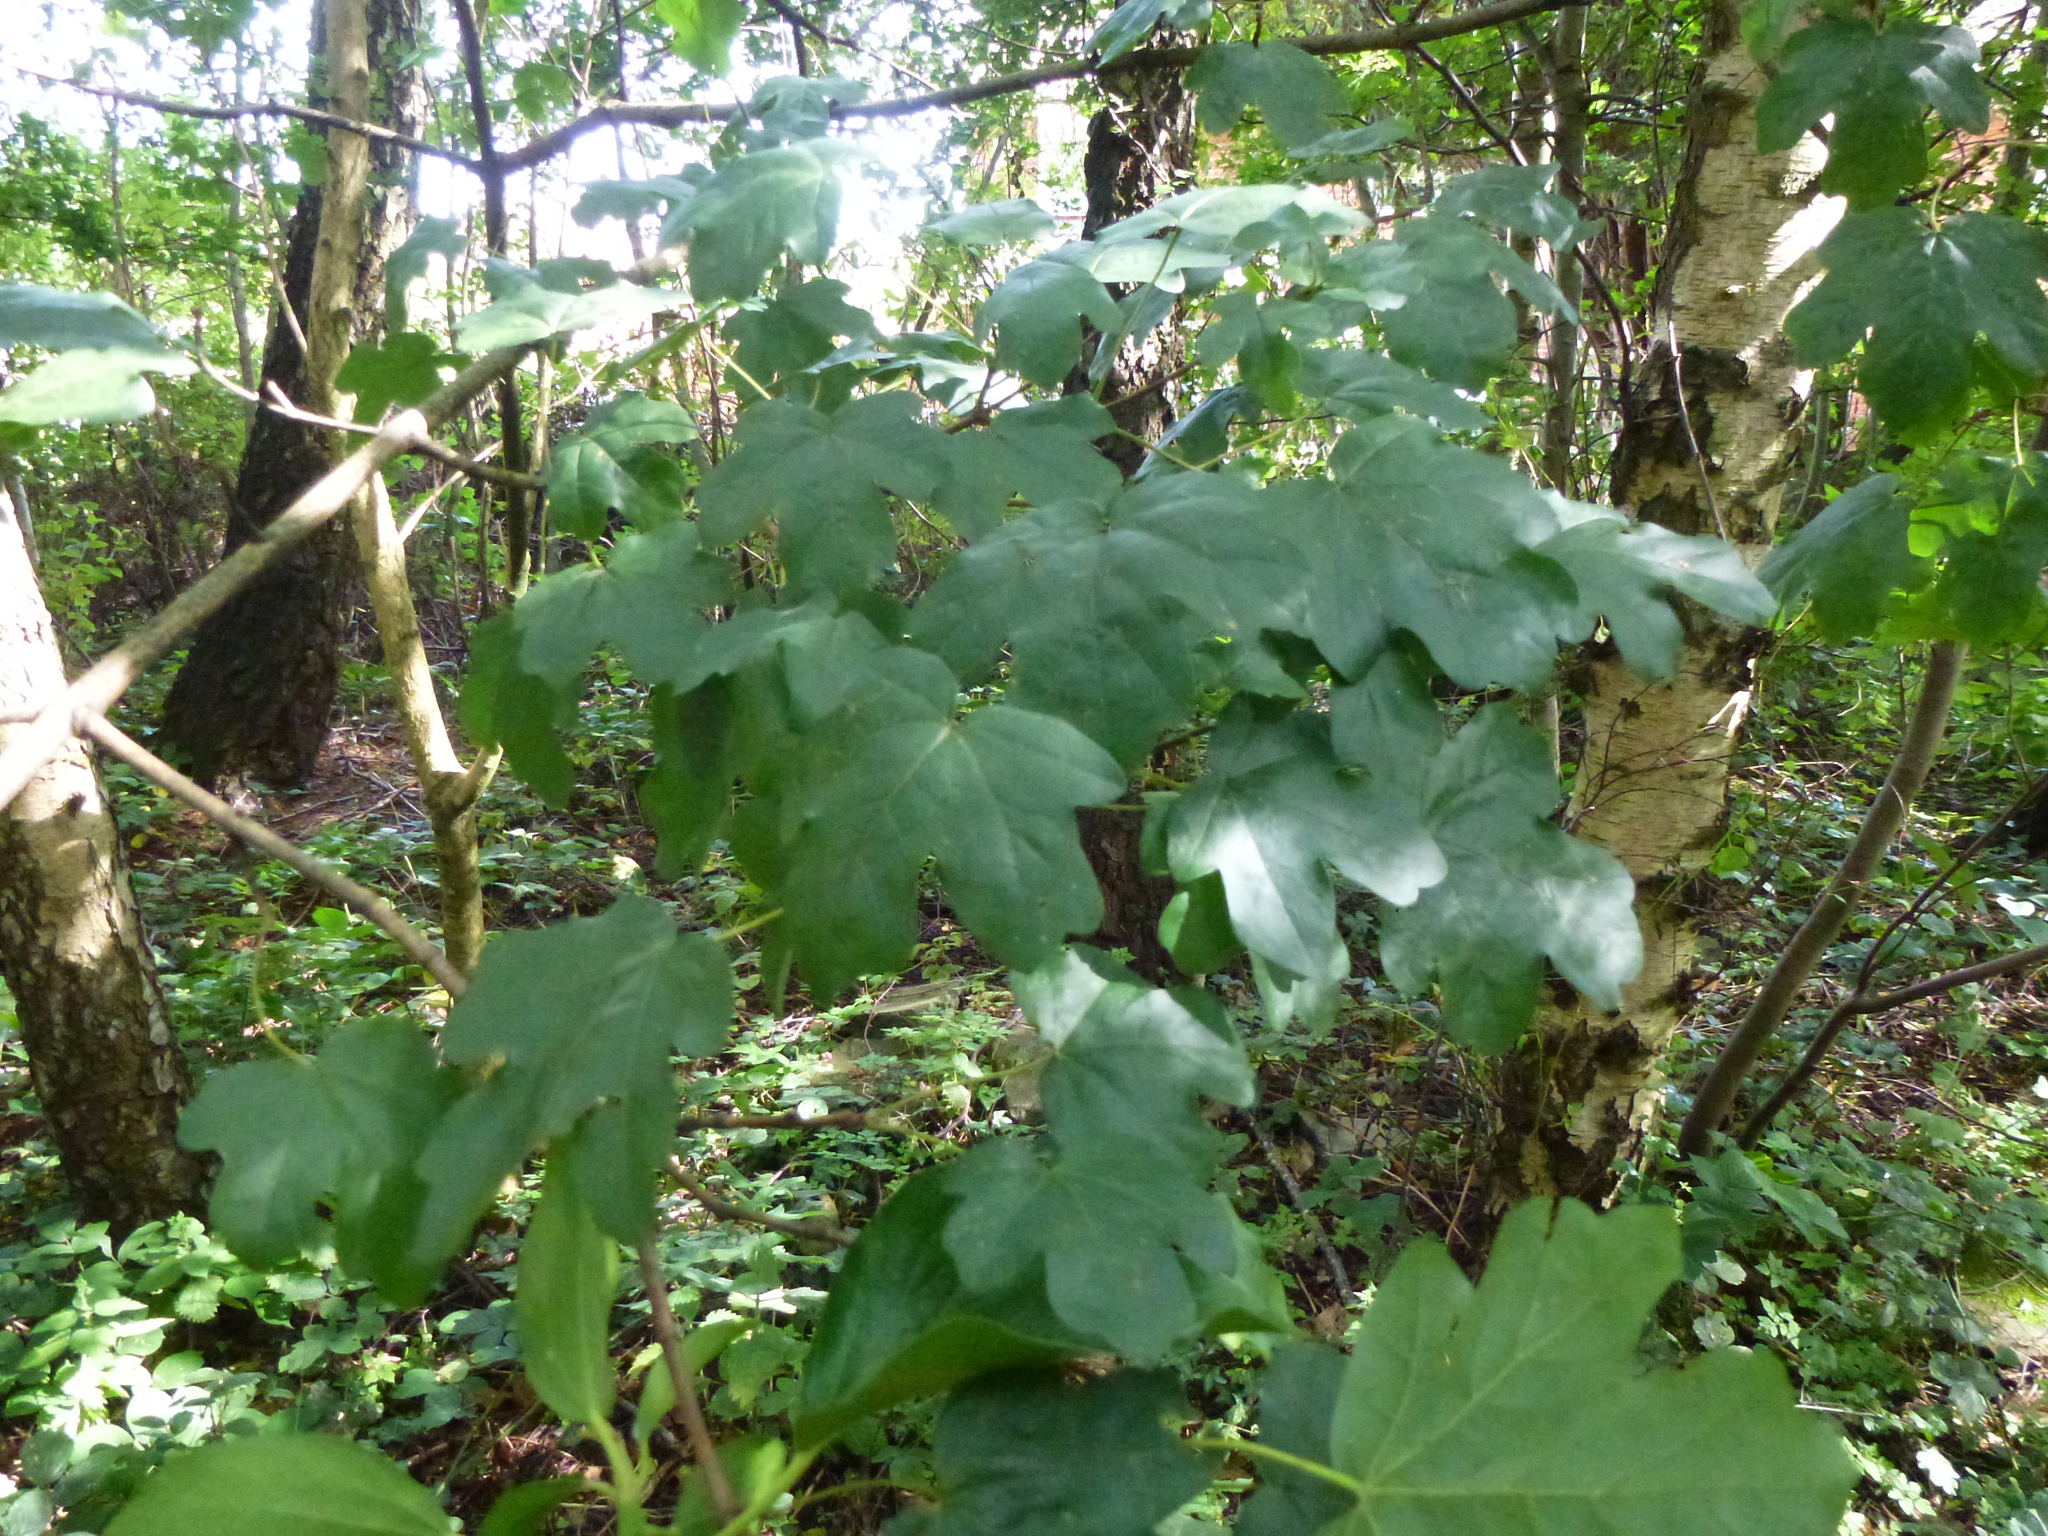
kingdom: Plantae
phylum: Tracheophyta
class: Magnoliopsida
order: Sapindales
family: Sapindaceae
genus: Acer
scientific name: Acer campestre
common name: Field maple
